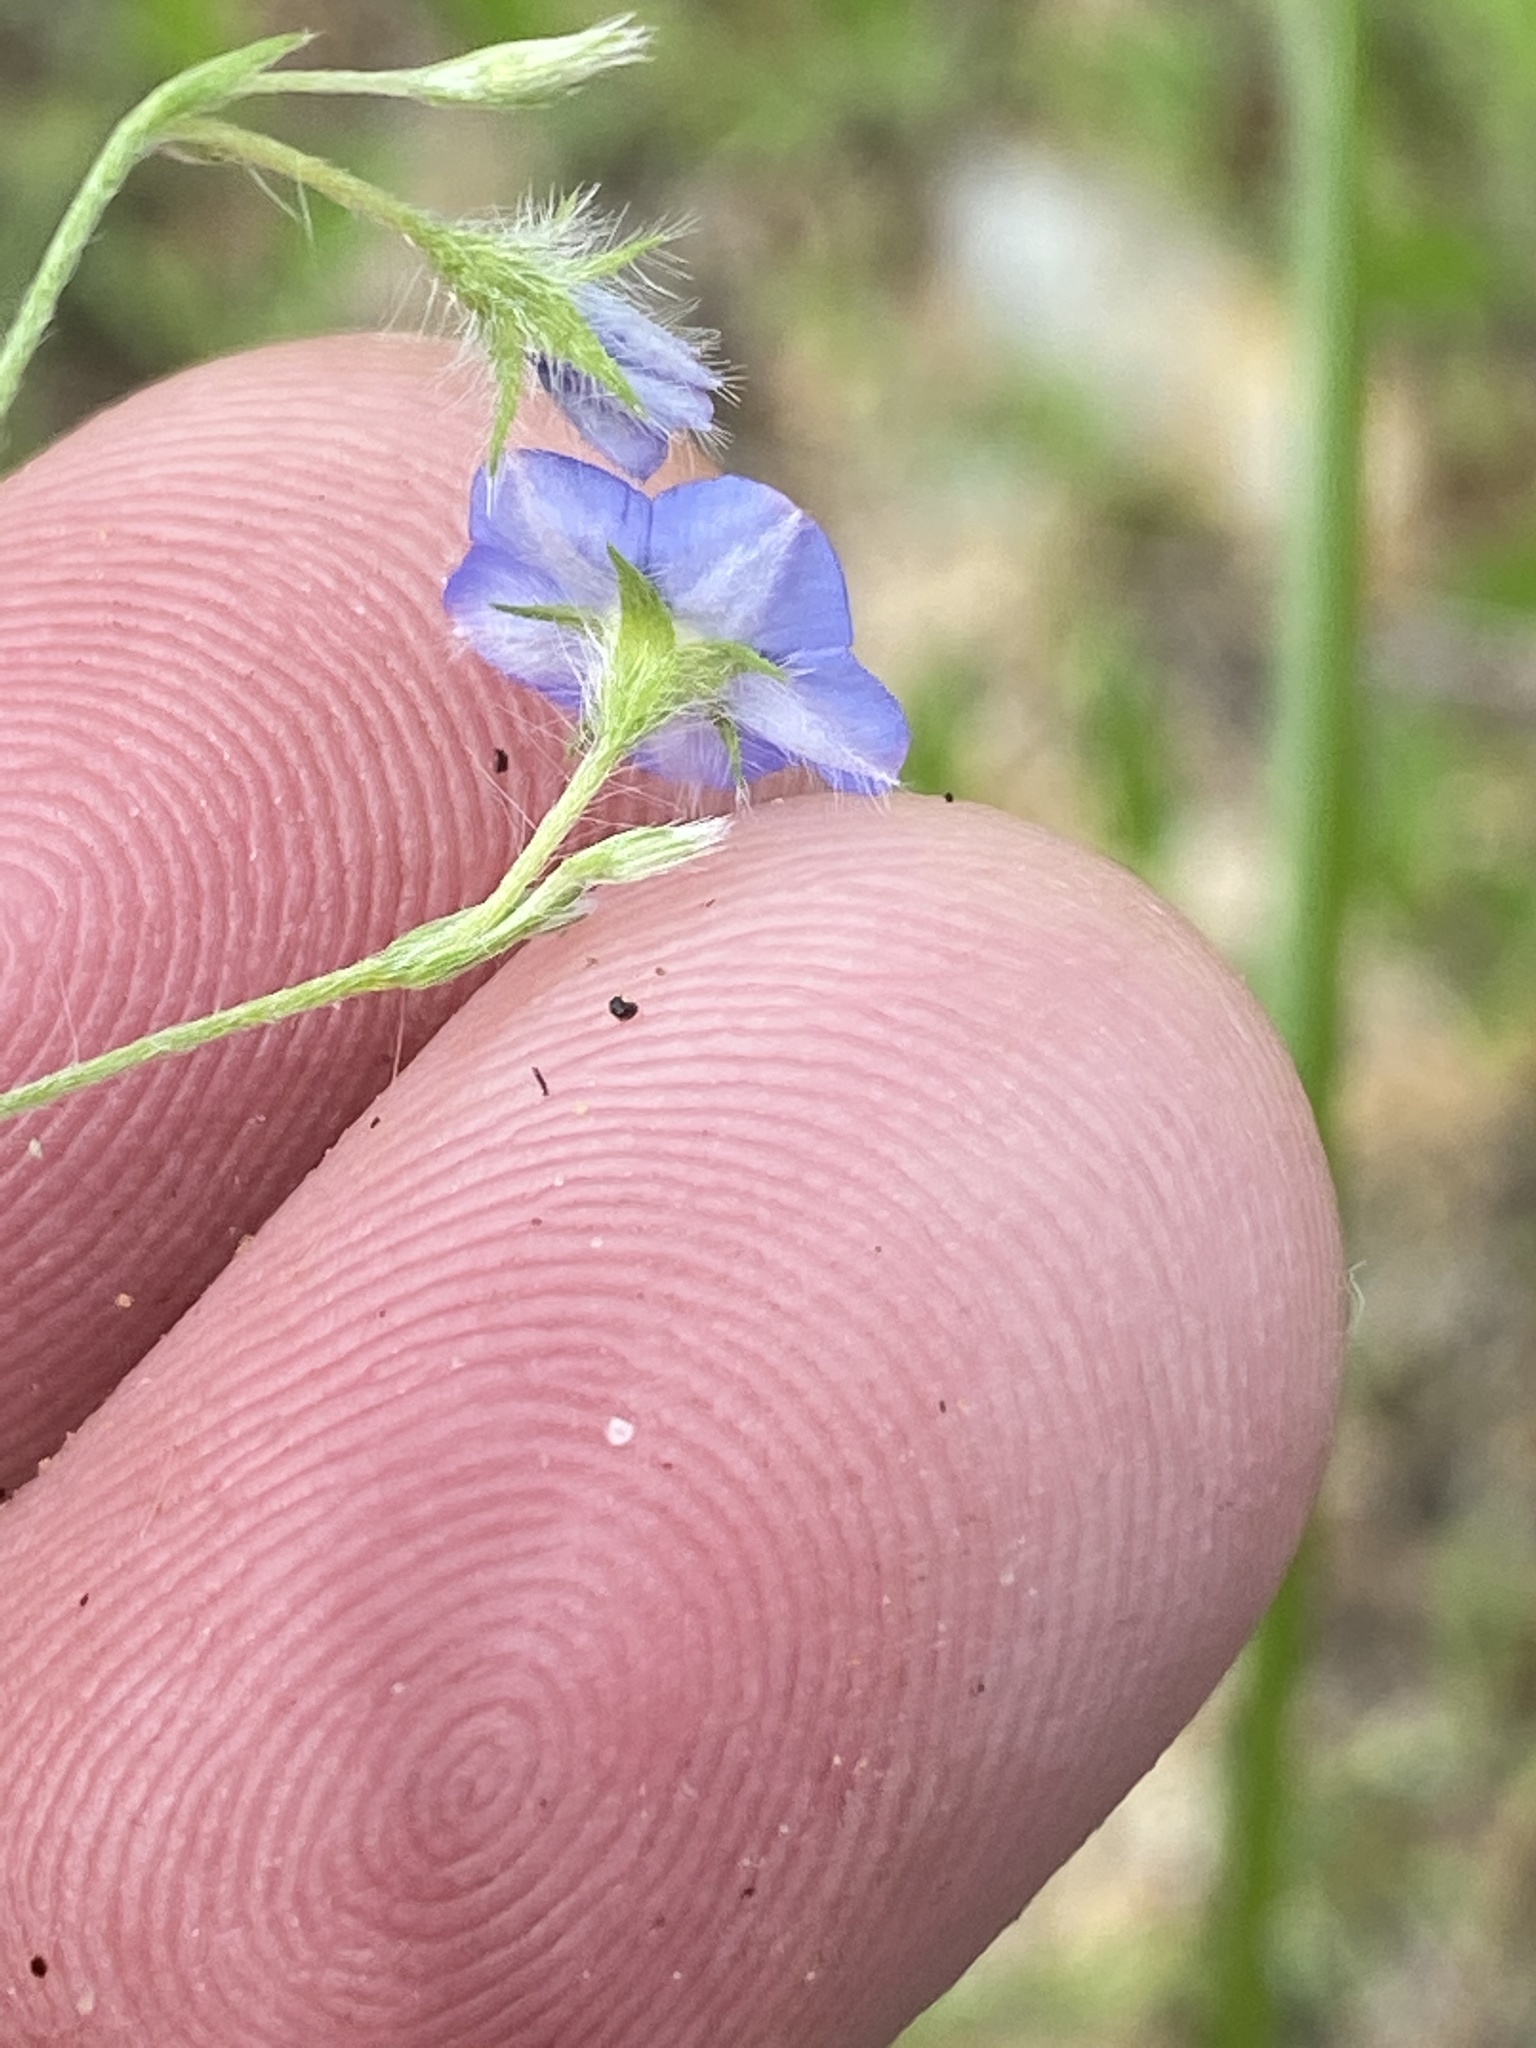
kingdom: Plantae
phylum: Tracheophyta
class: Magnoliopsida
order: Solanales
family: Convolvulaceae
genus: Evolvulus
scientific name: Evolvulus alsinoides
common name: Slender dwarf morning-glory
